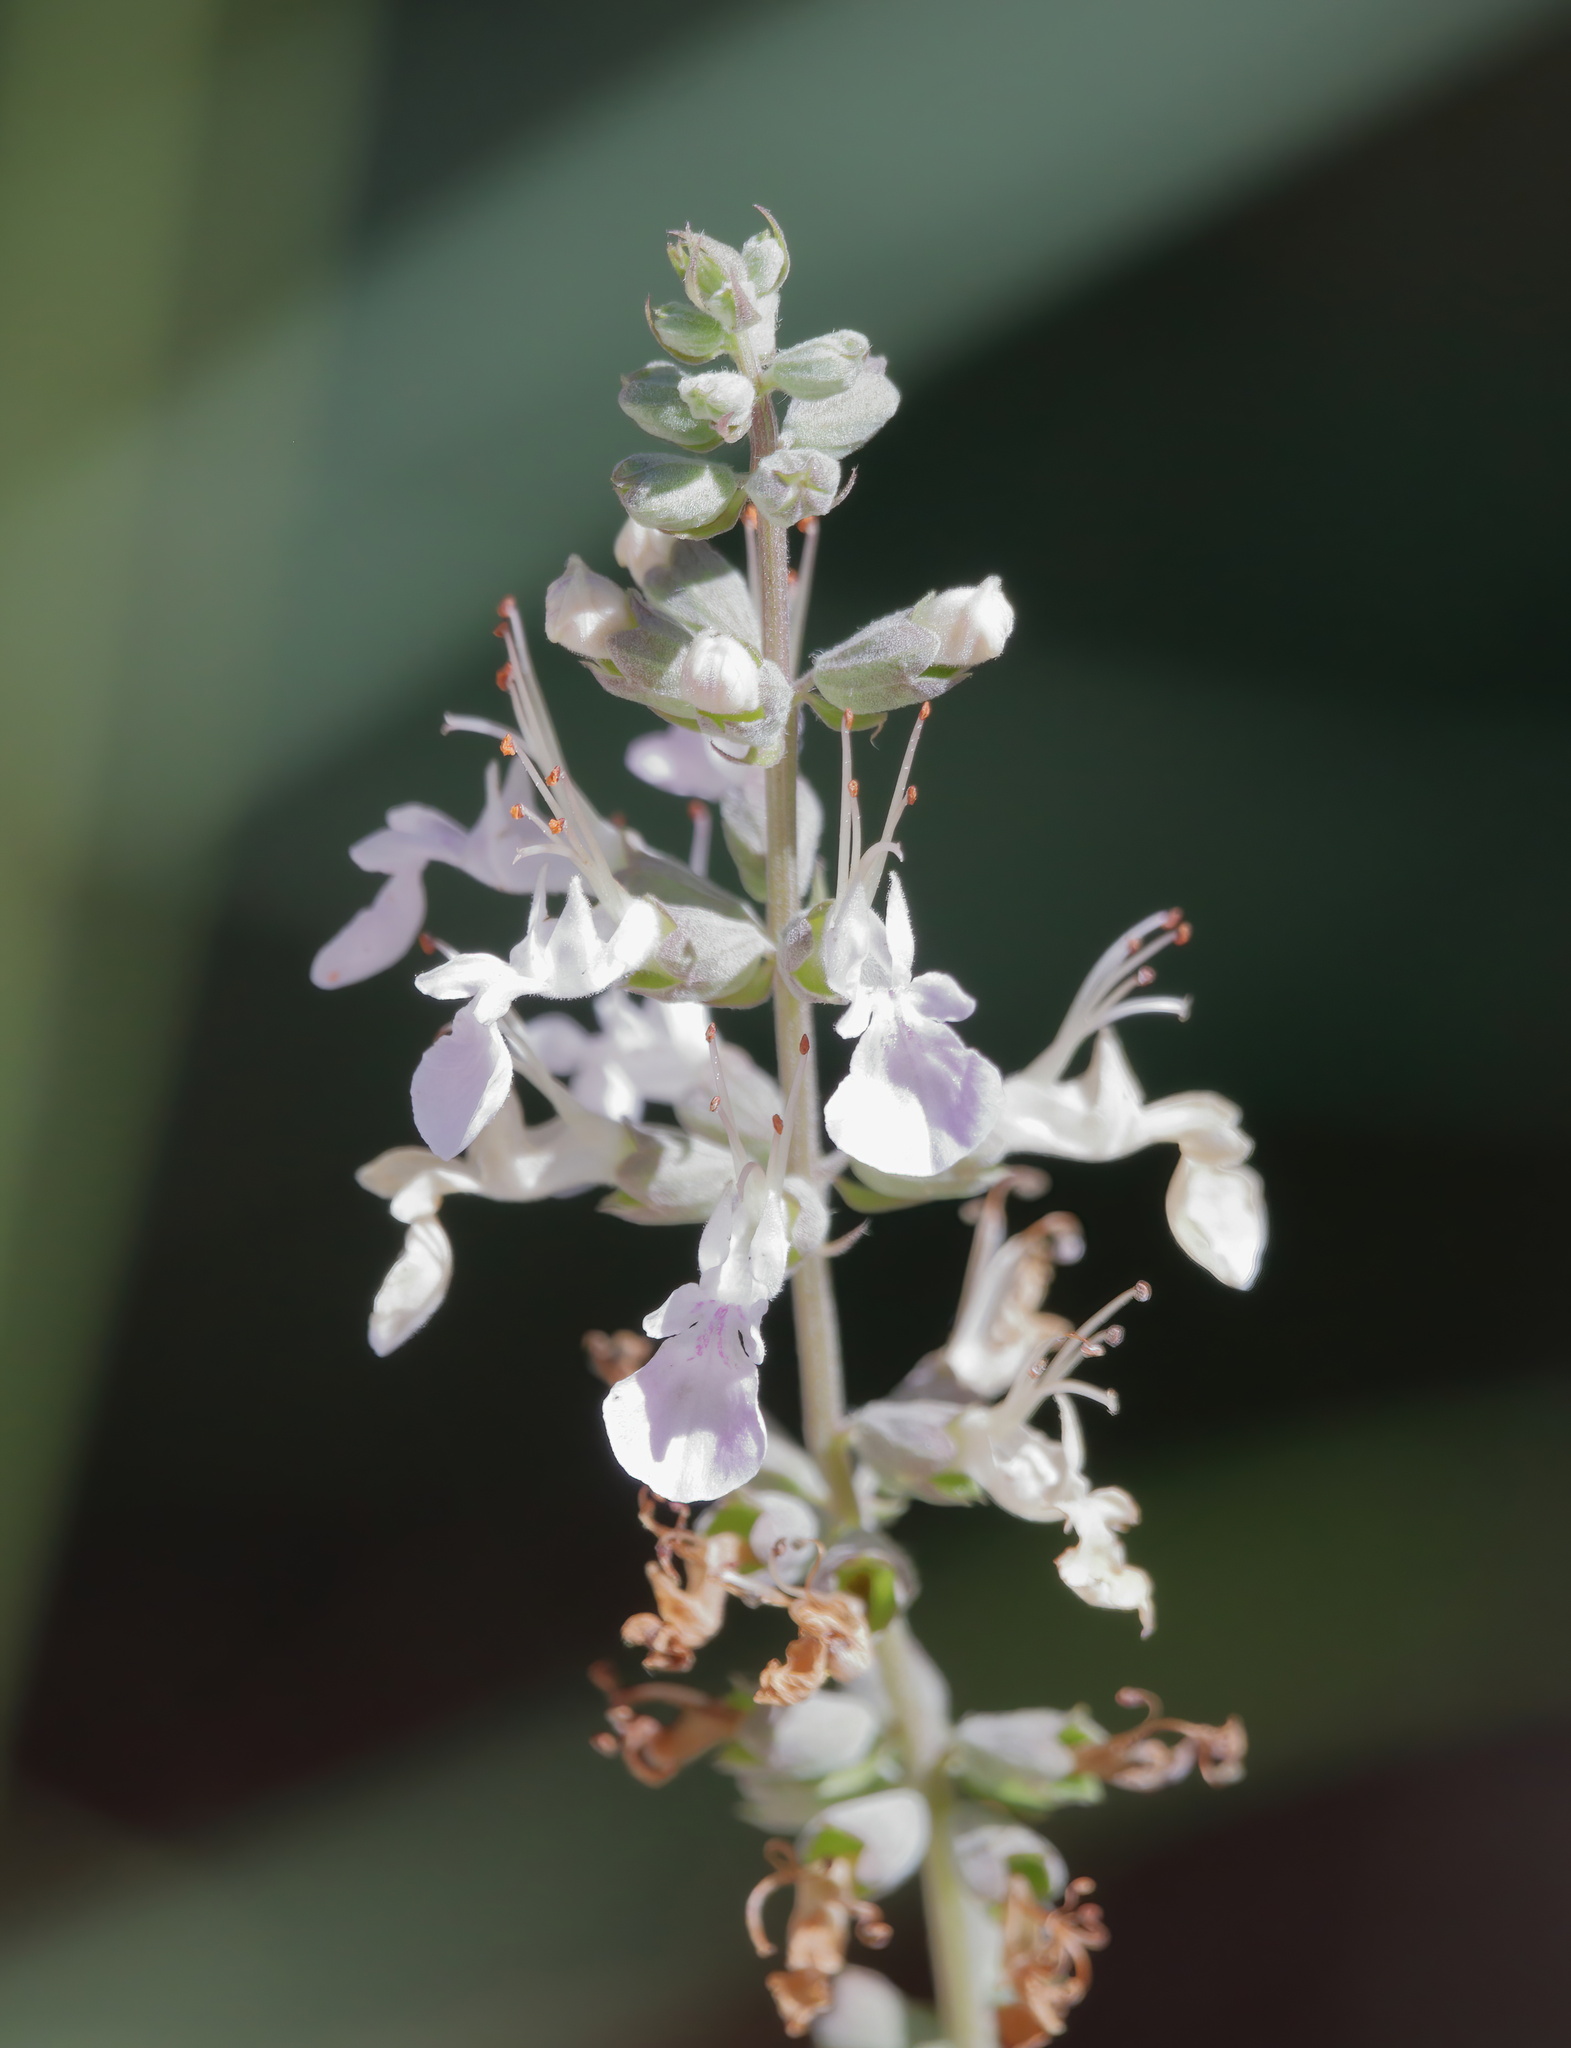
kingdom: Plantae
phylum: Tracheophyta
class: Magnoliopsida
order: Lamiales
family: Lamiaceae
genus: Teucrium
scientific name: Teucrium canadense
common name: American germander
